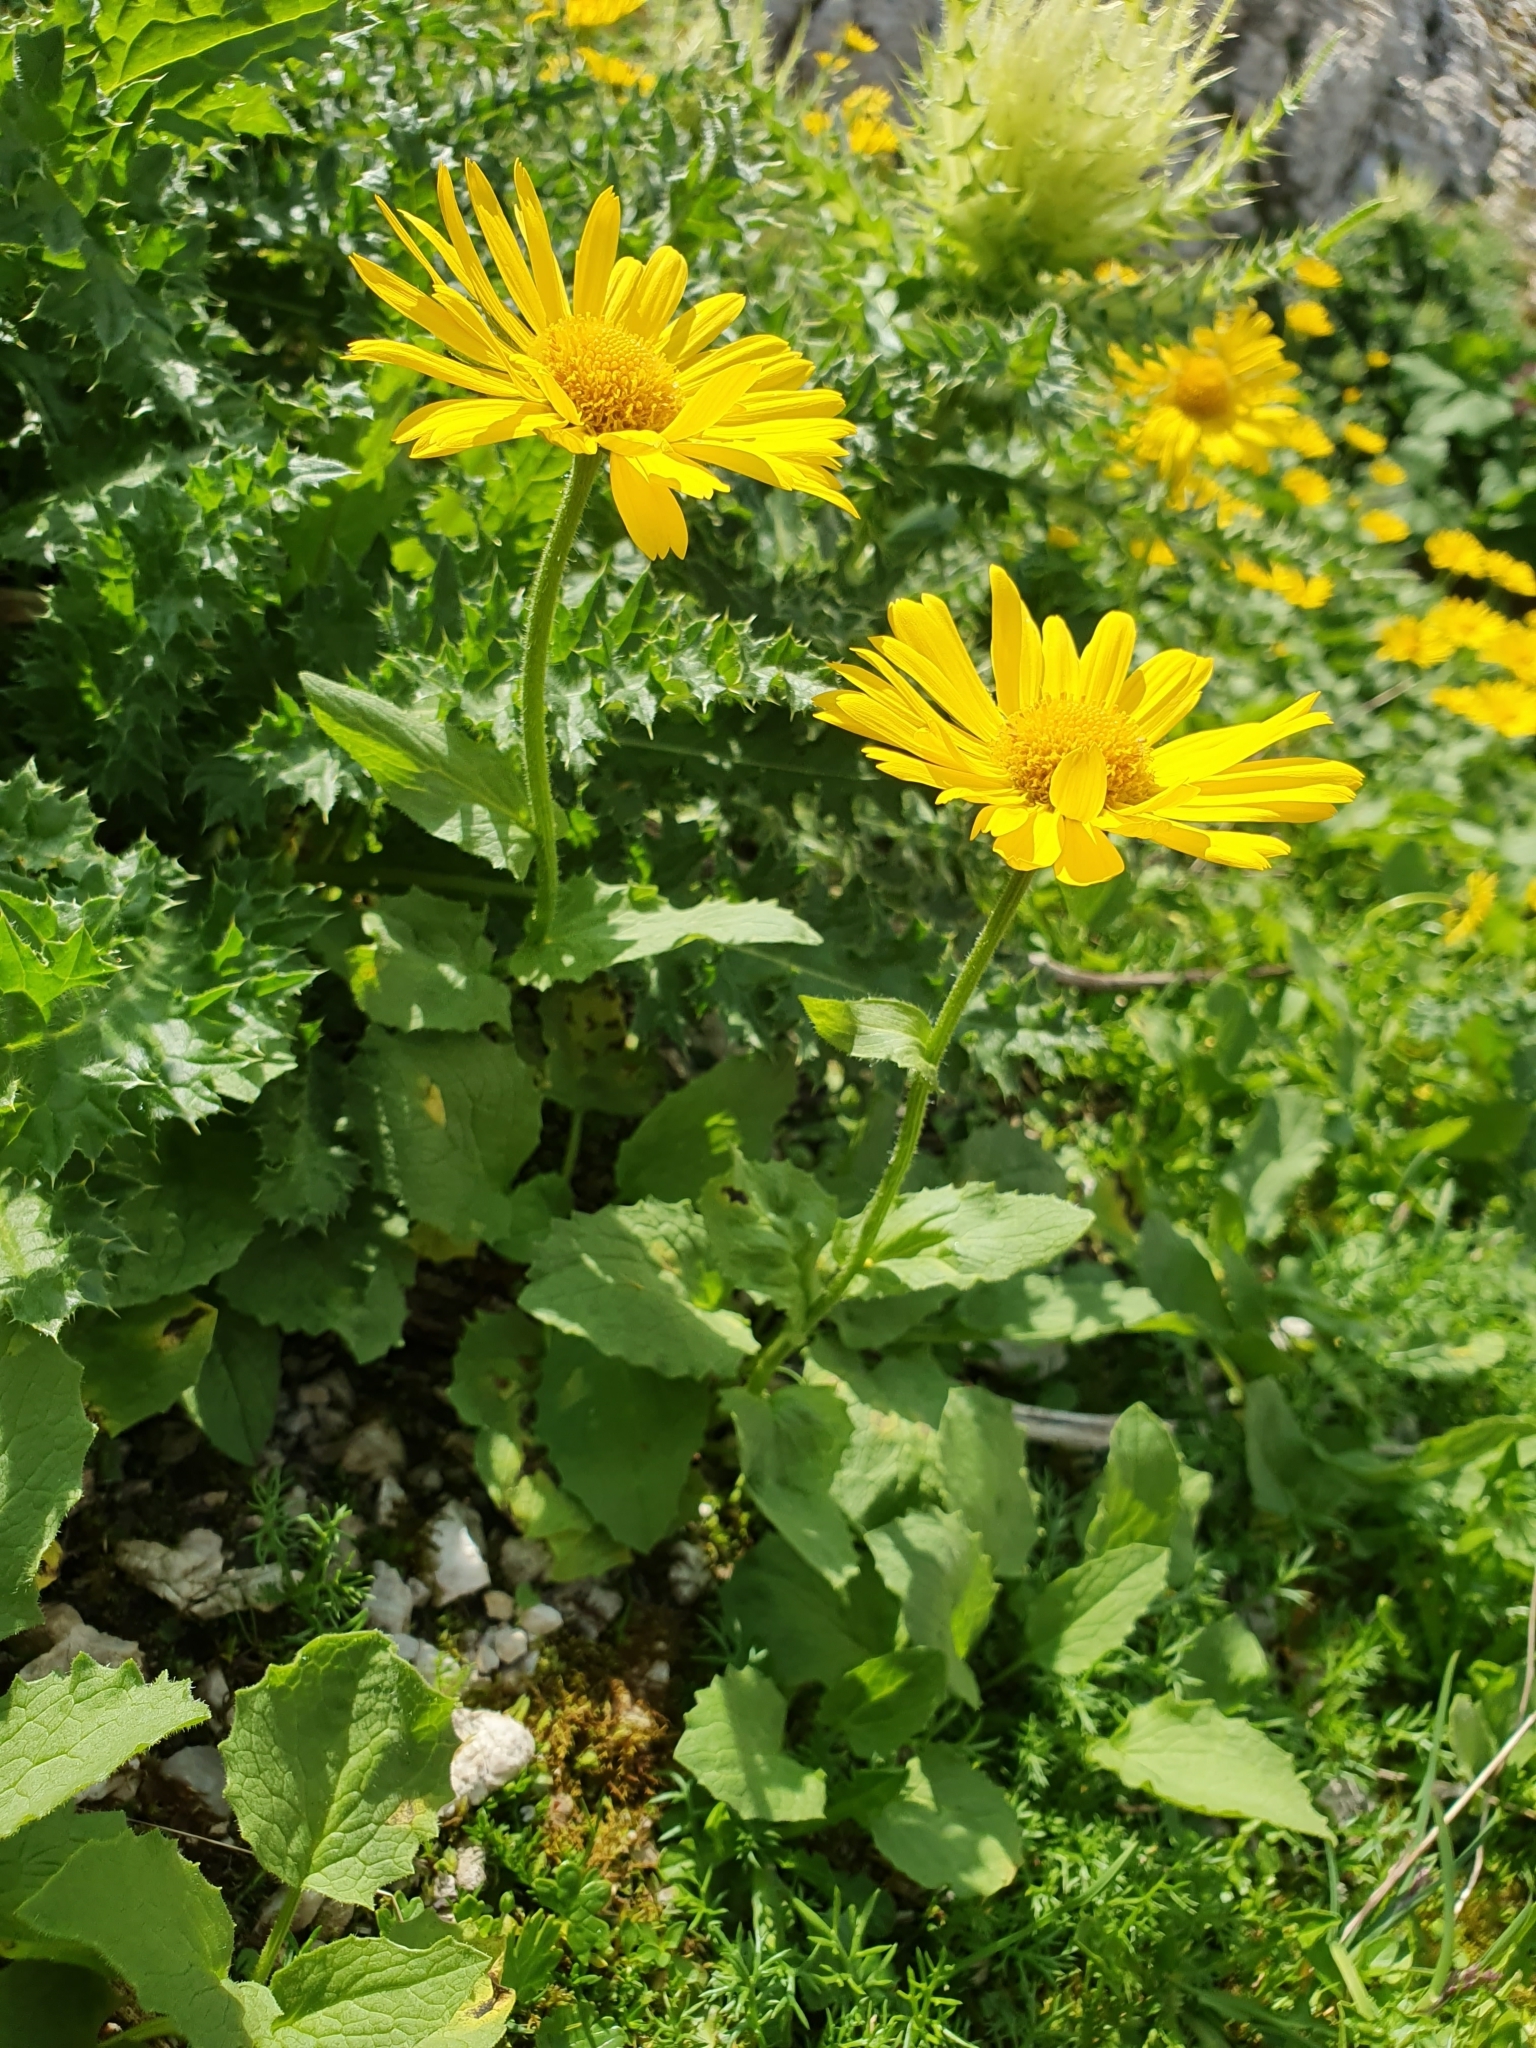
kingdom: Plantae
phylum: Tracheophyta
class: Magnoliopsida
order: Asterales
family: Asteraceae
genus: Doronicum
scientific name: Doronicum grandiflorum
